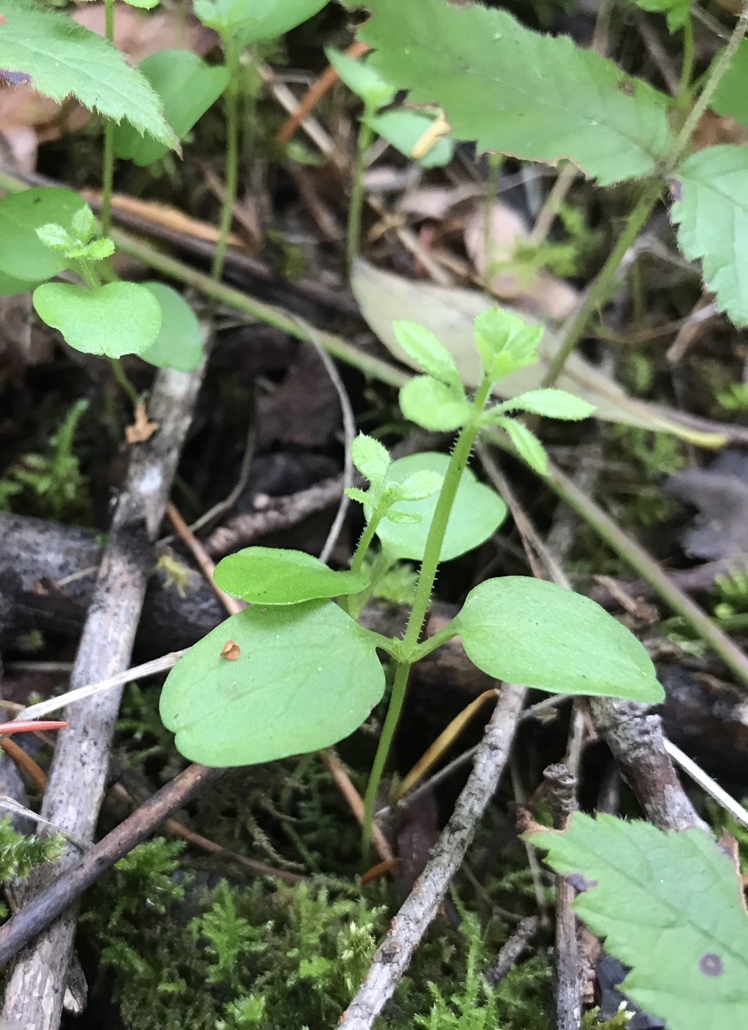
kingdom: Plantae
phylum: Tracheophyta
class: Magnoliopsida
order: Gentianales
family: Rubiaceae
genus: Galium
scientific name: Galium aparine
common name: Cleavers
